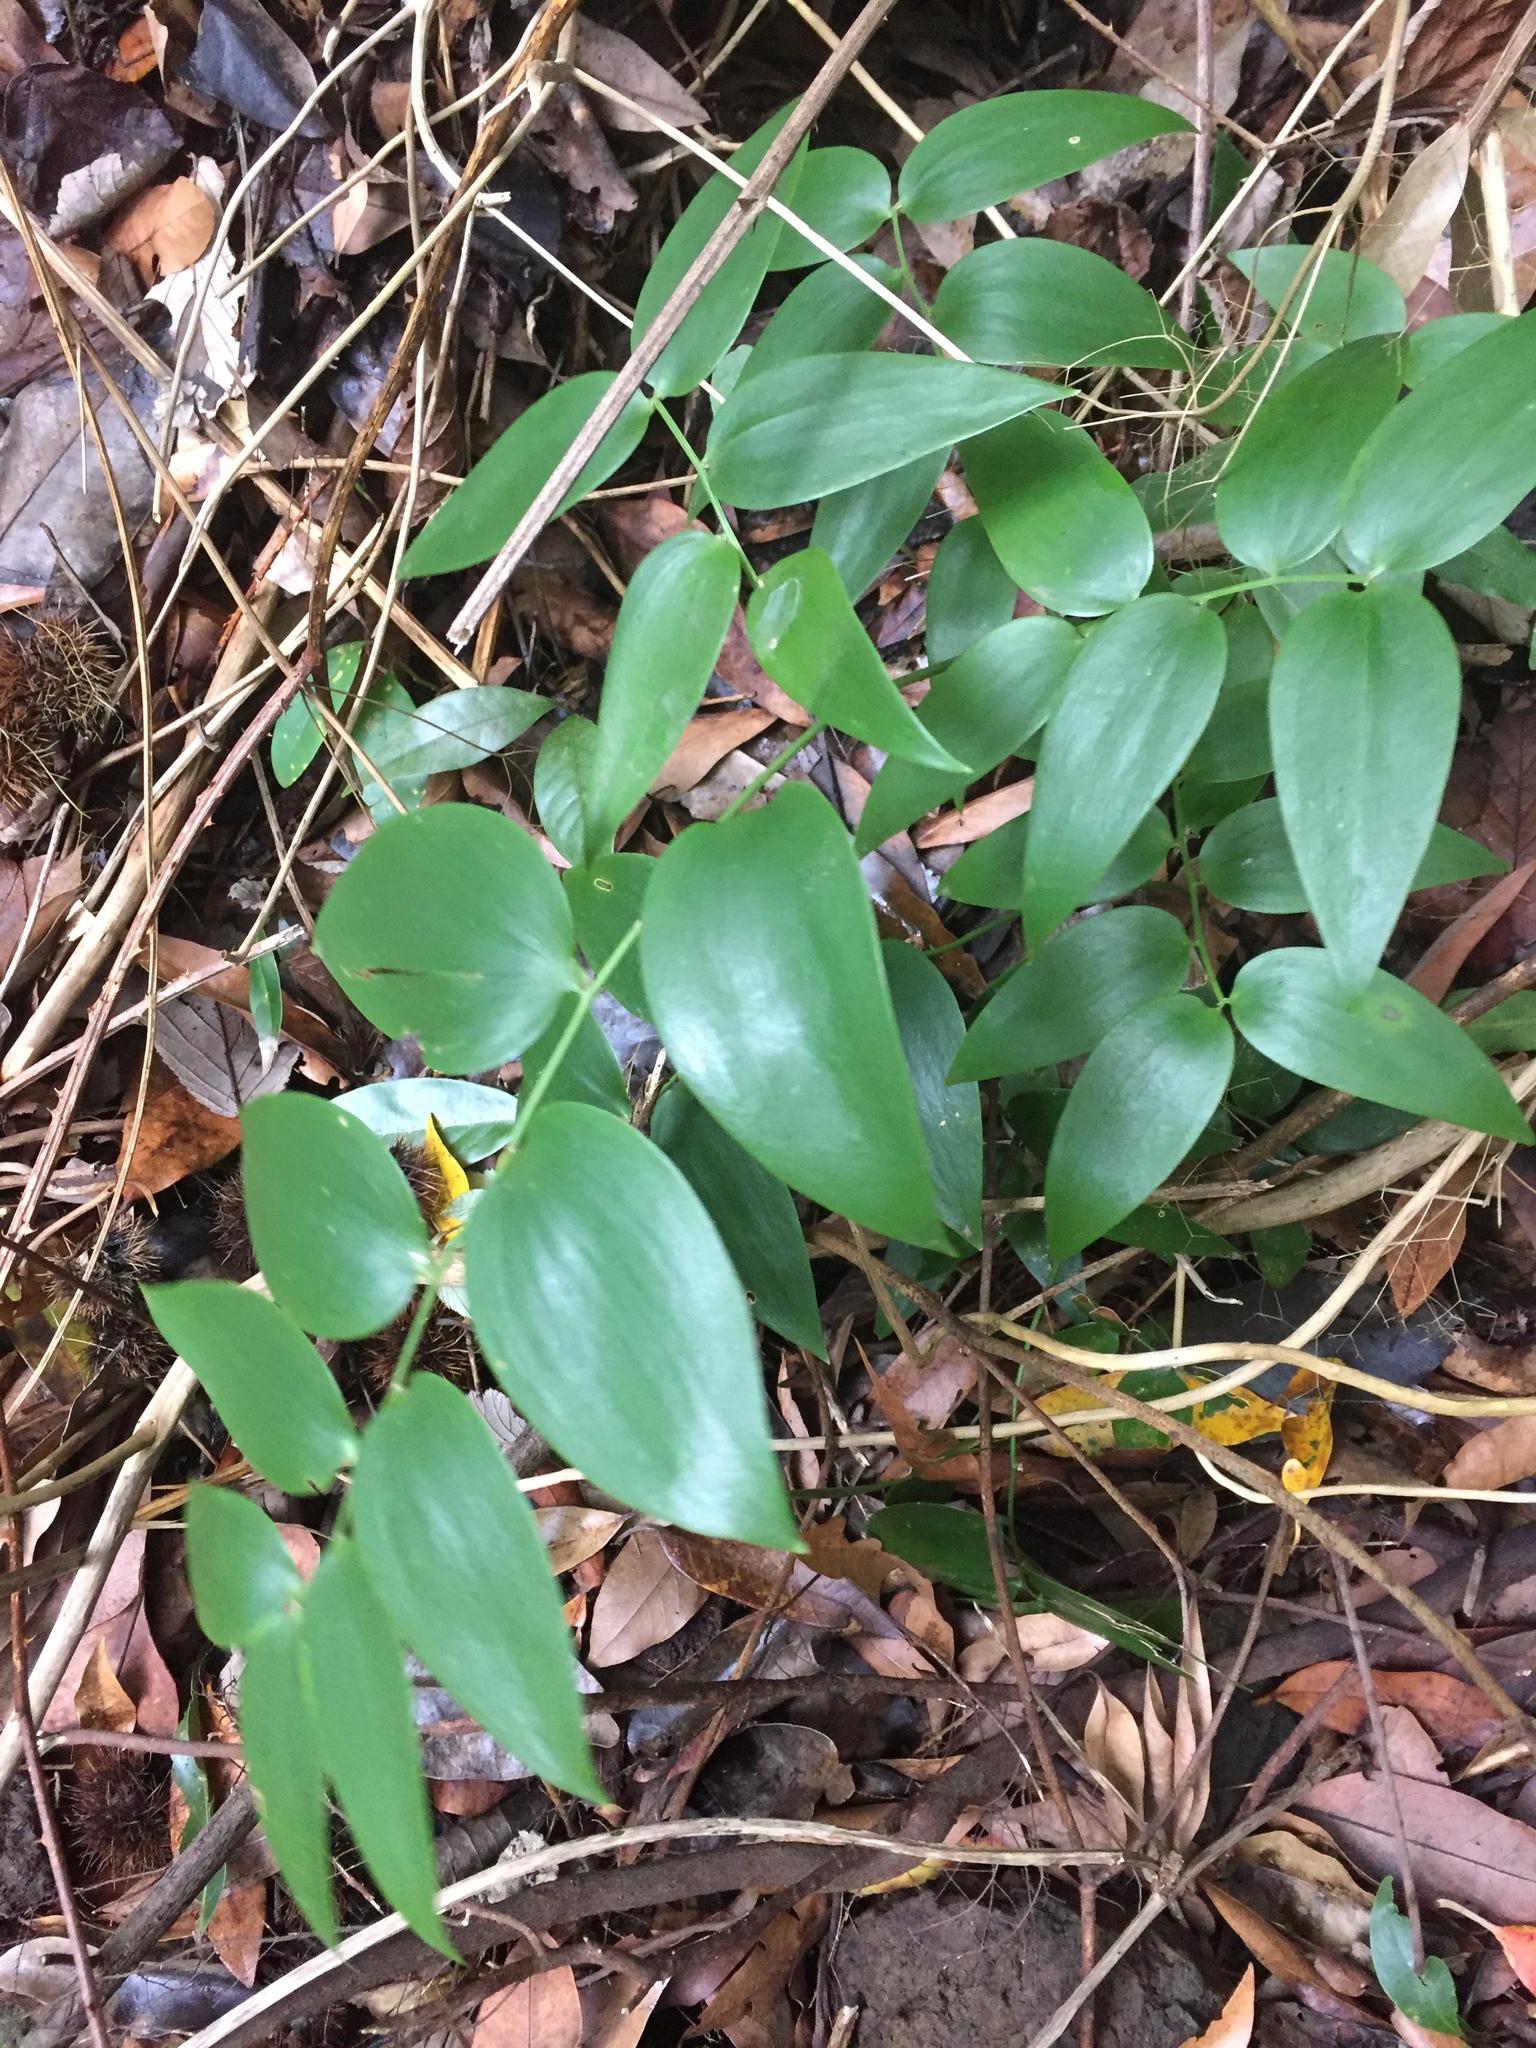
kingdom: Plantae
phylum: Tracheophyta
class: Liliopsida
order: Asparagales
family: Asparagaceae
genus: Semele
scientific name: Semele androgyna
